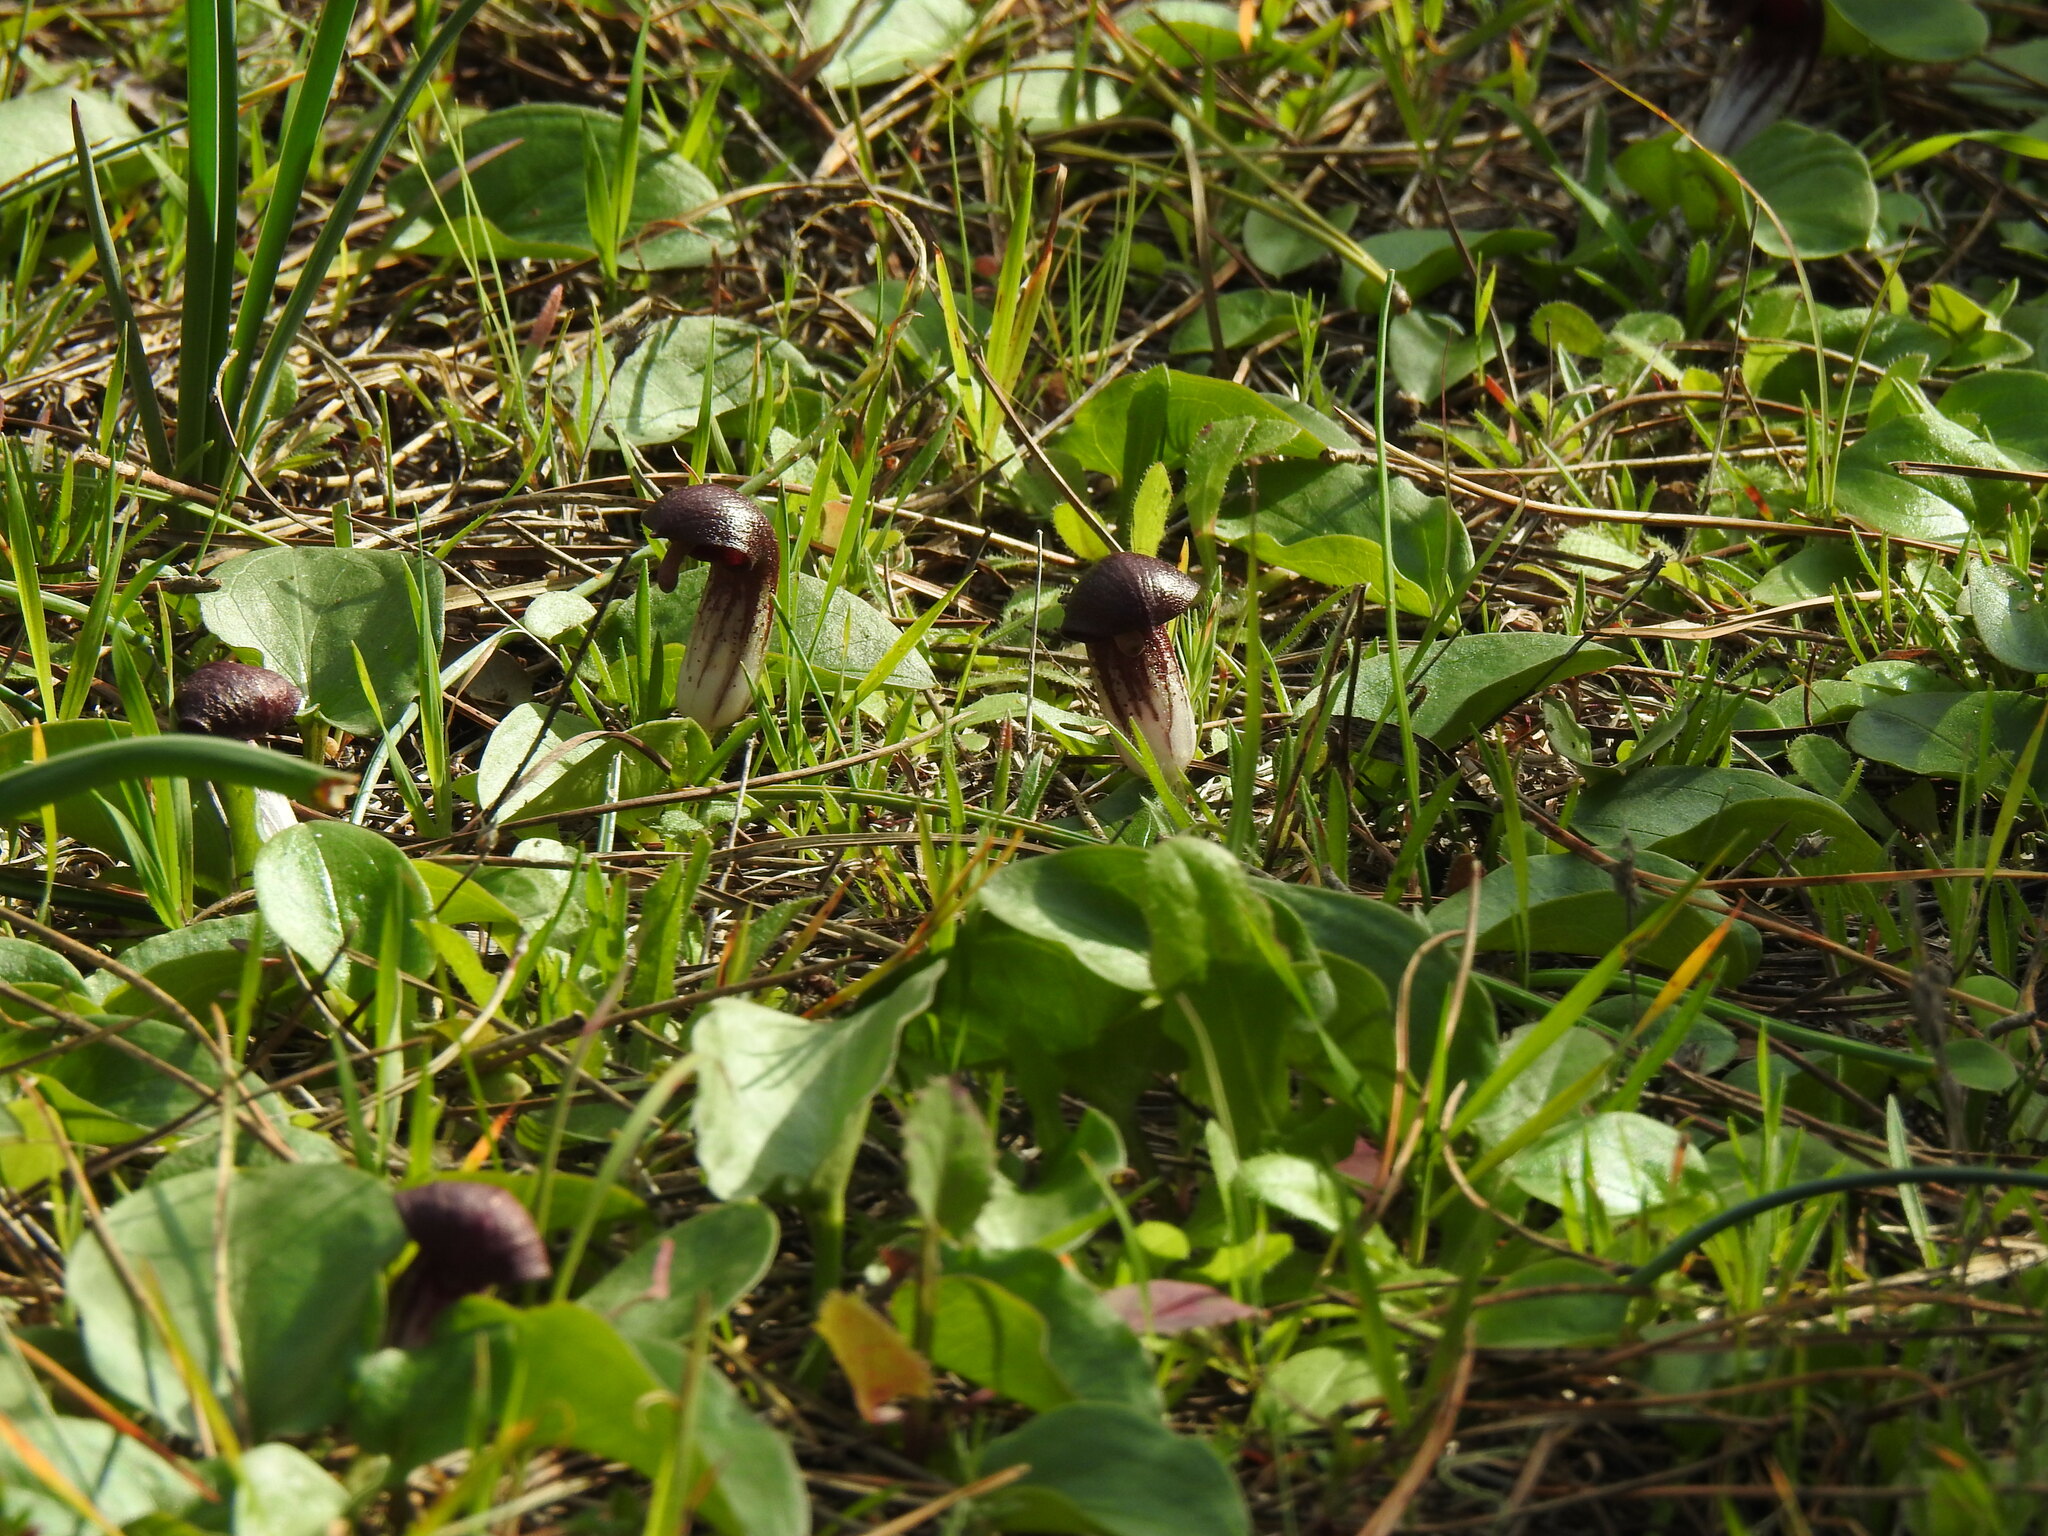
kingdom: Plantae
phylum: Tracheophyta
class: Liliopsida
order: Alismatales
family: Araceae
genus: Arisarum
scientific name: Arisarum simorrhinum
